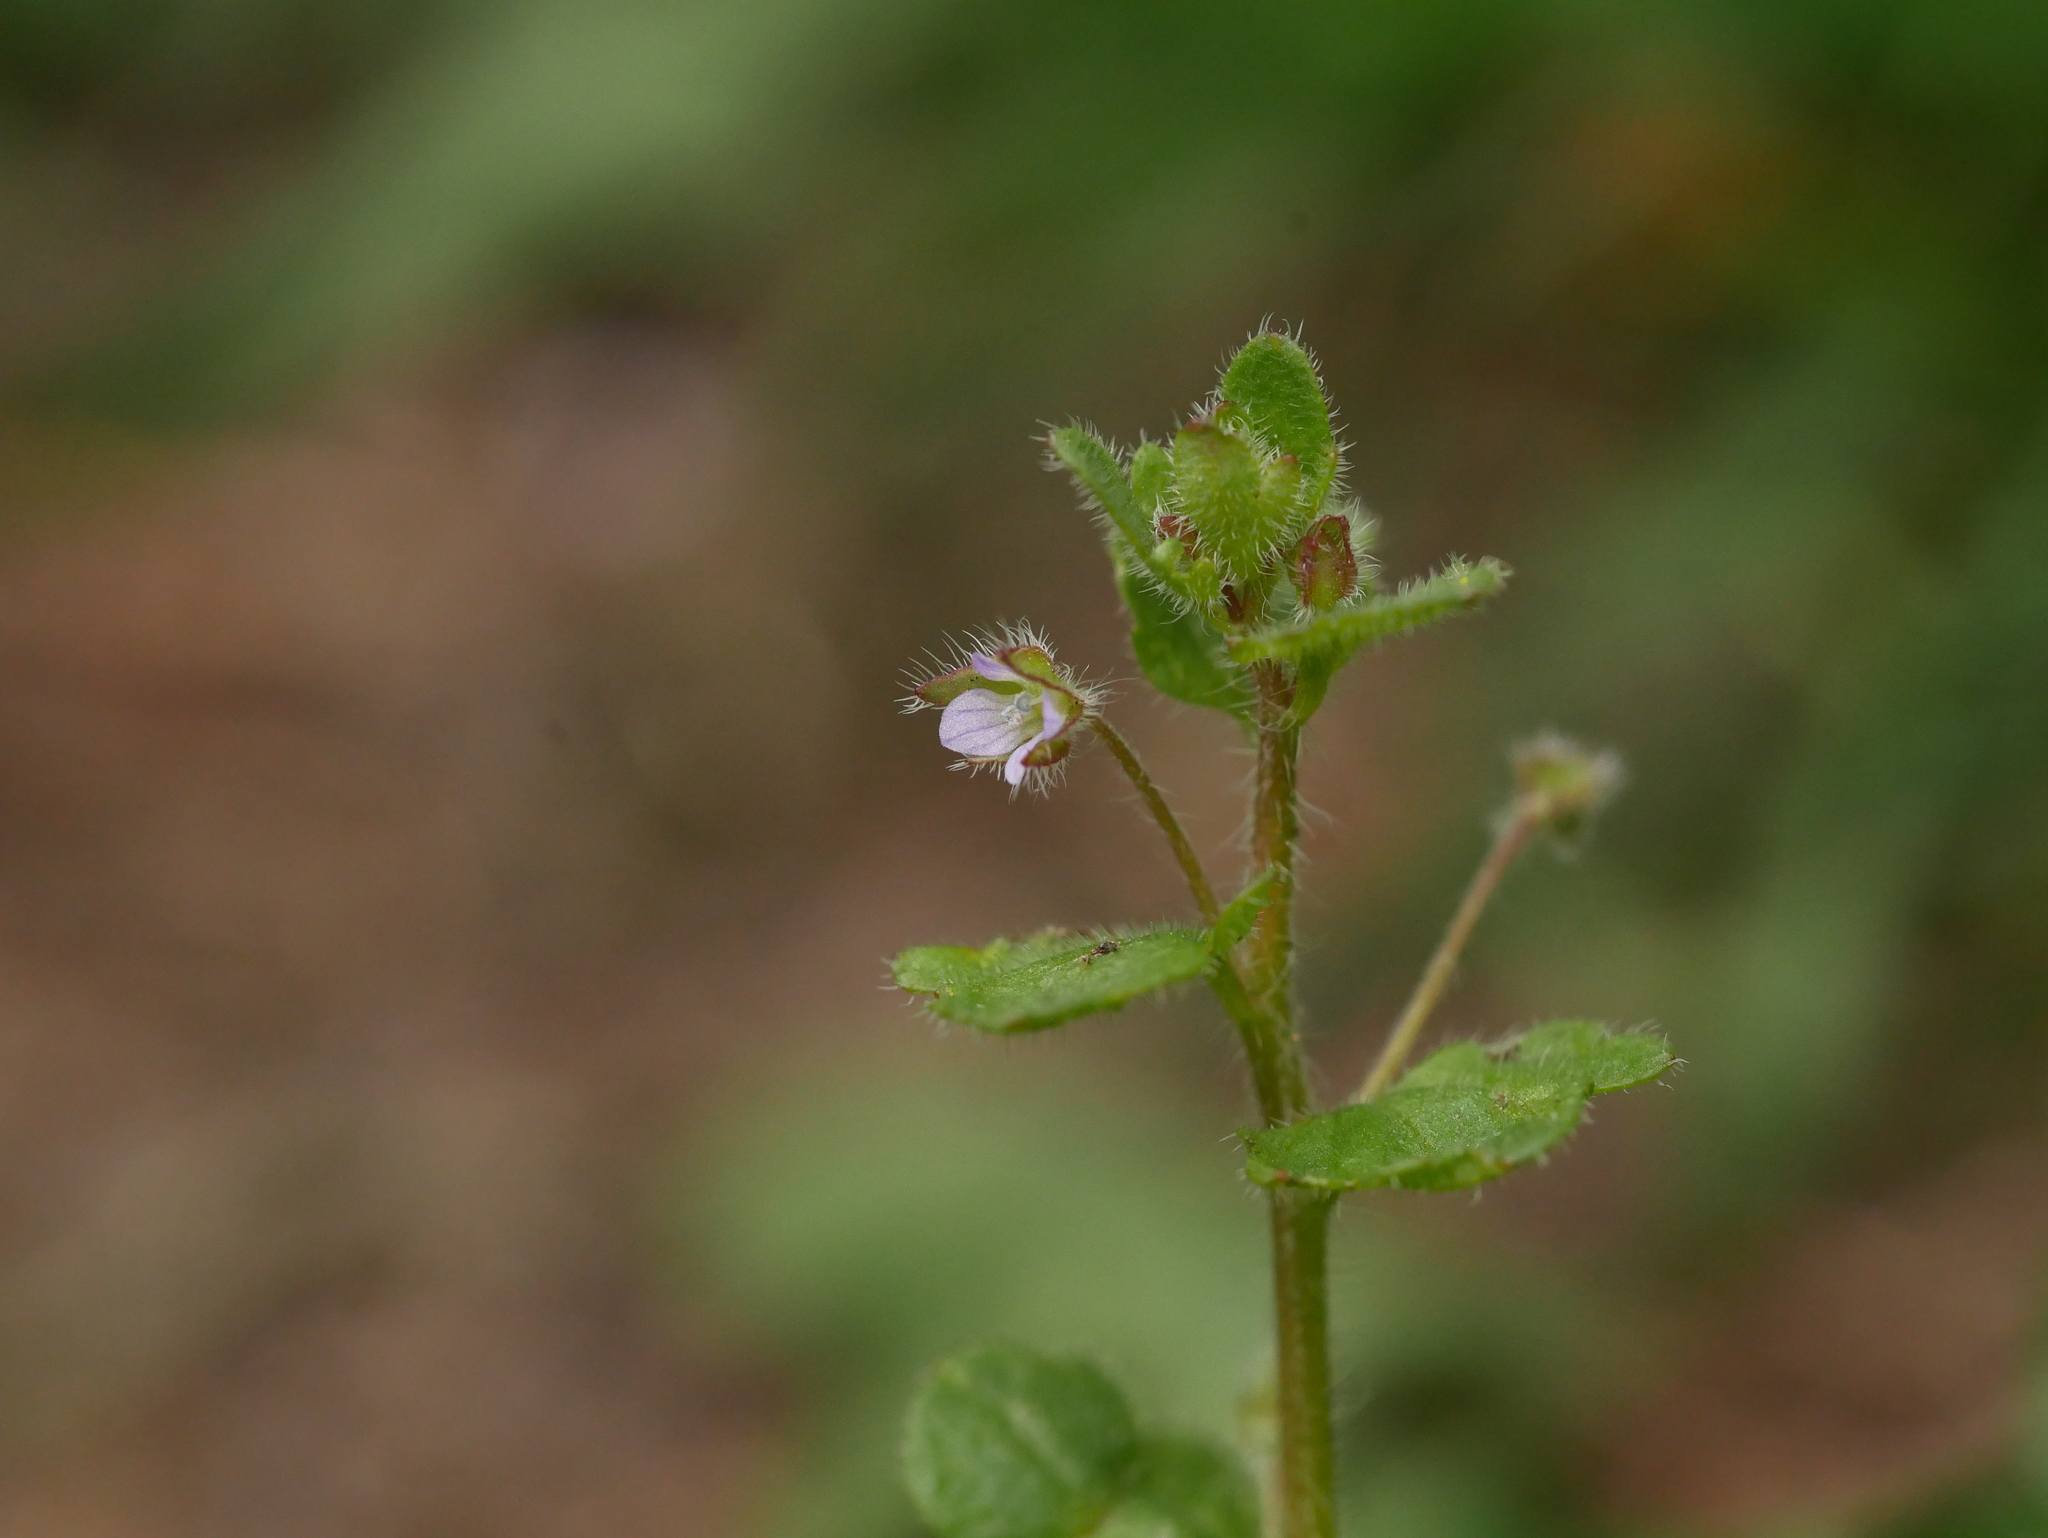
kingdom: Plantae
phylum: Tracheophyta
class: Magnoliopsida
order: Lamiales
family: Plantaginaceae
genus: Veronica
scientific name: Veronica sublobata
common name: False ivy-leaved speedwell
